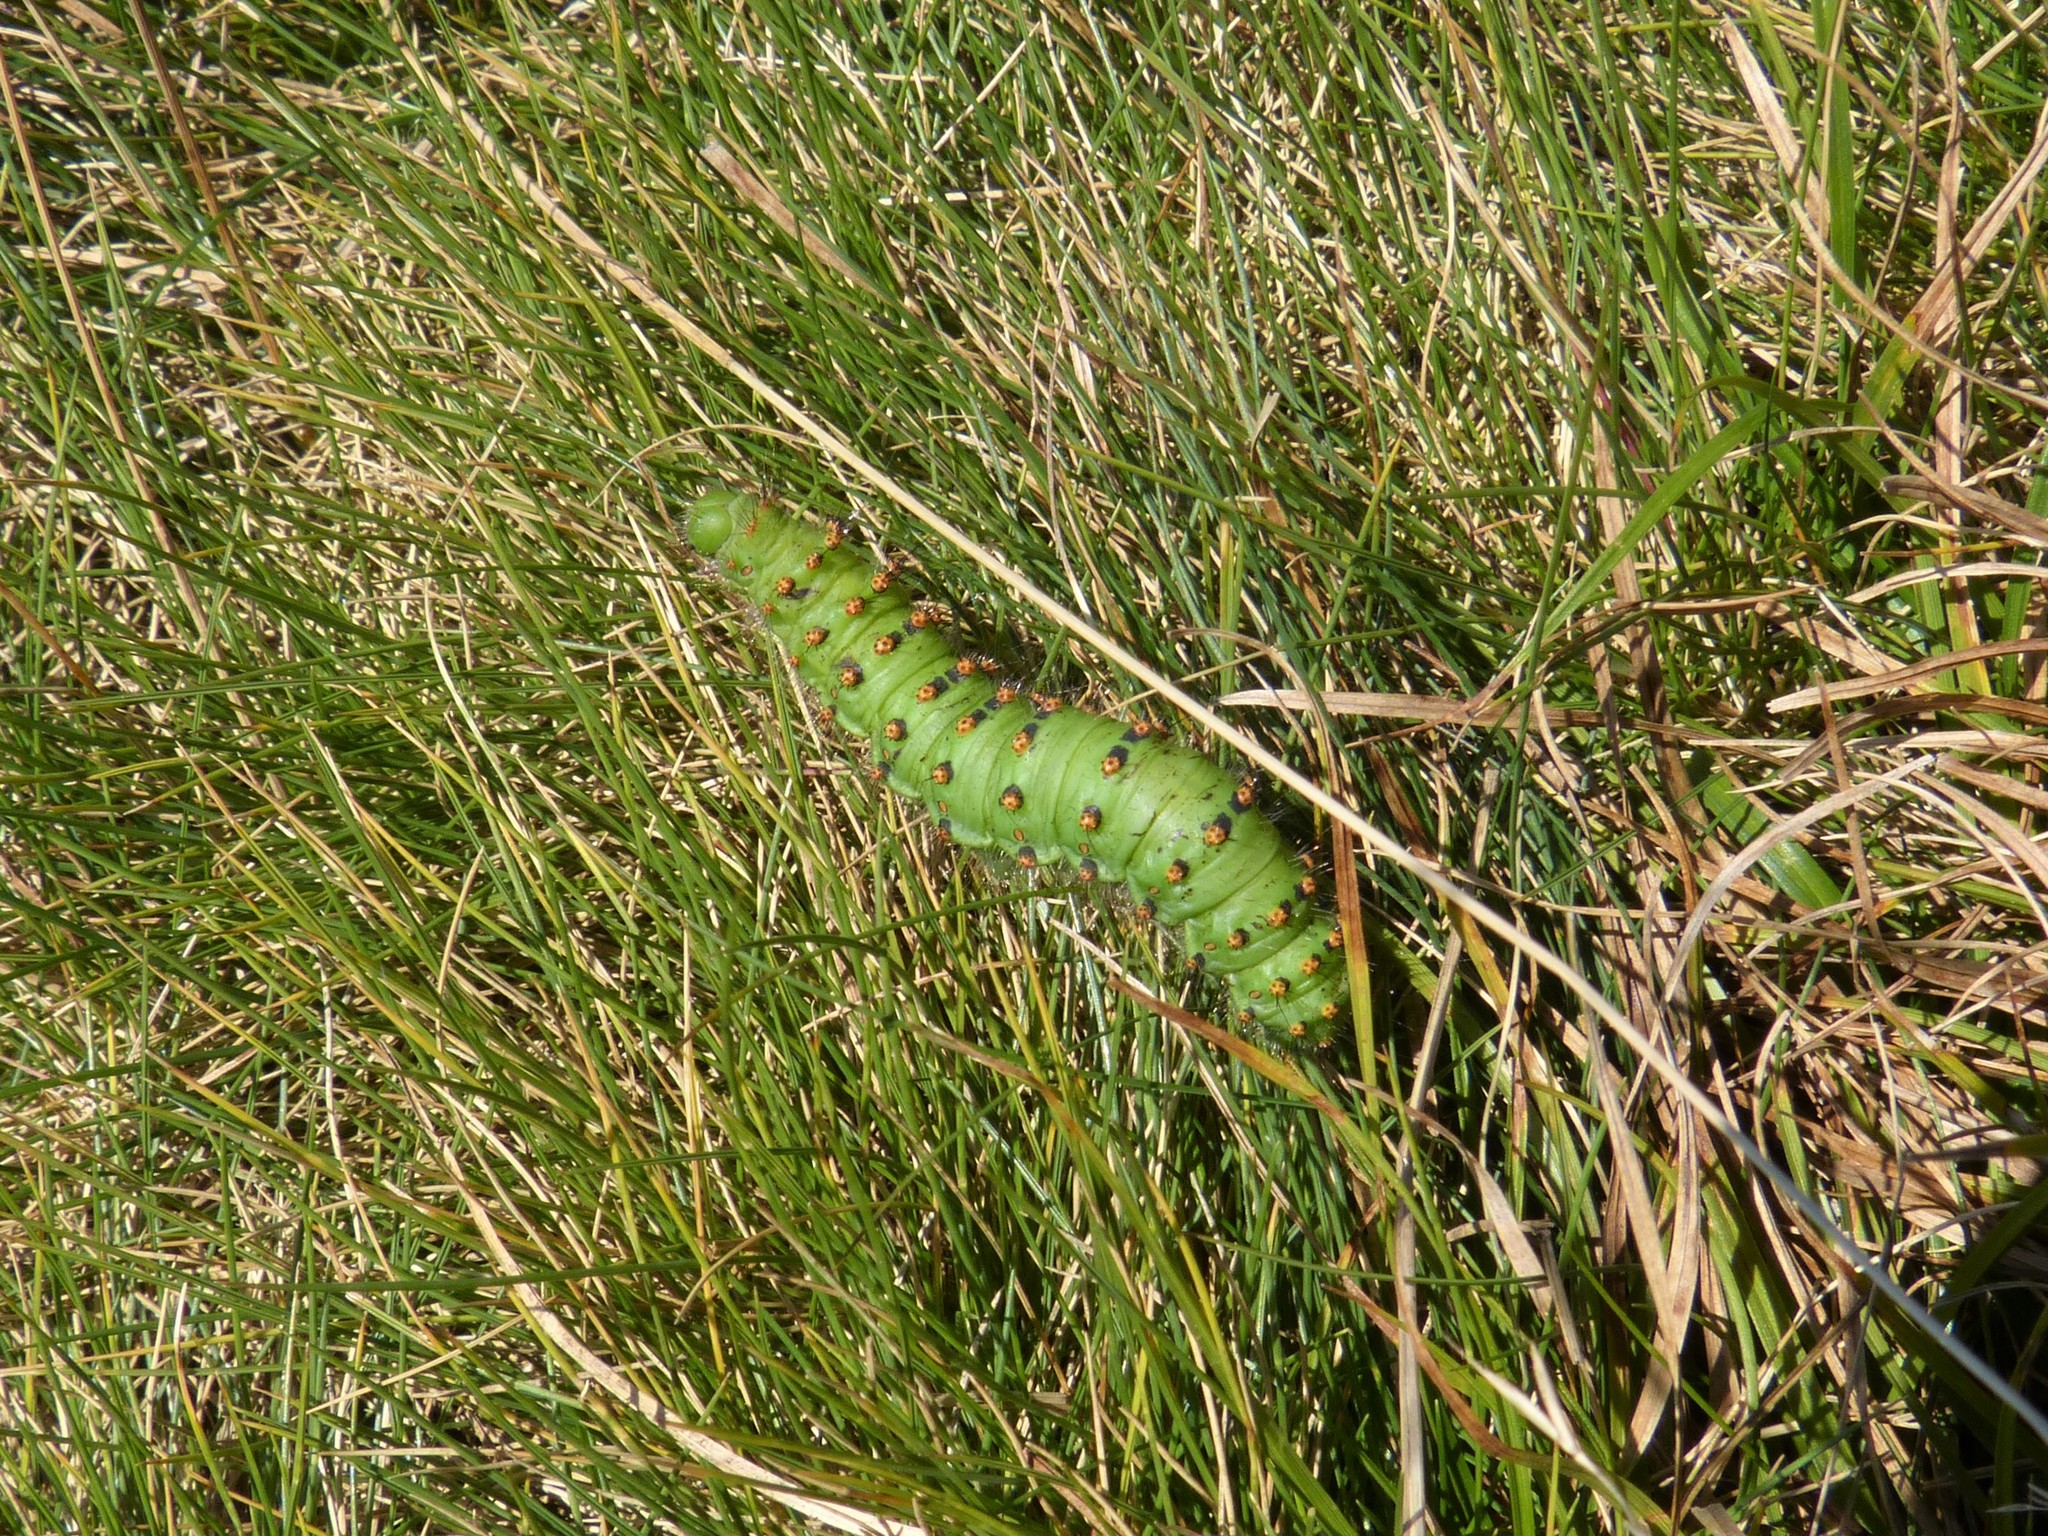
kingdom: Animalia
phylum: Arthropoda
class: Insecta
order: Lepidoptera
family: Saturniidae
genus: Saturnia
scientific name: Saturnia pavoniella
